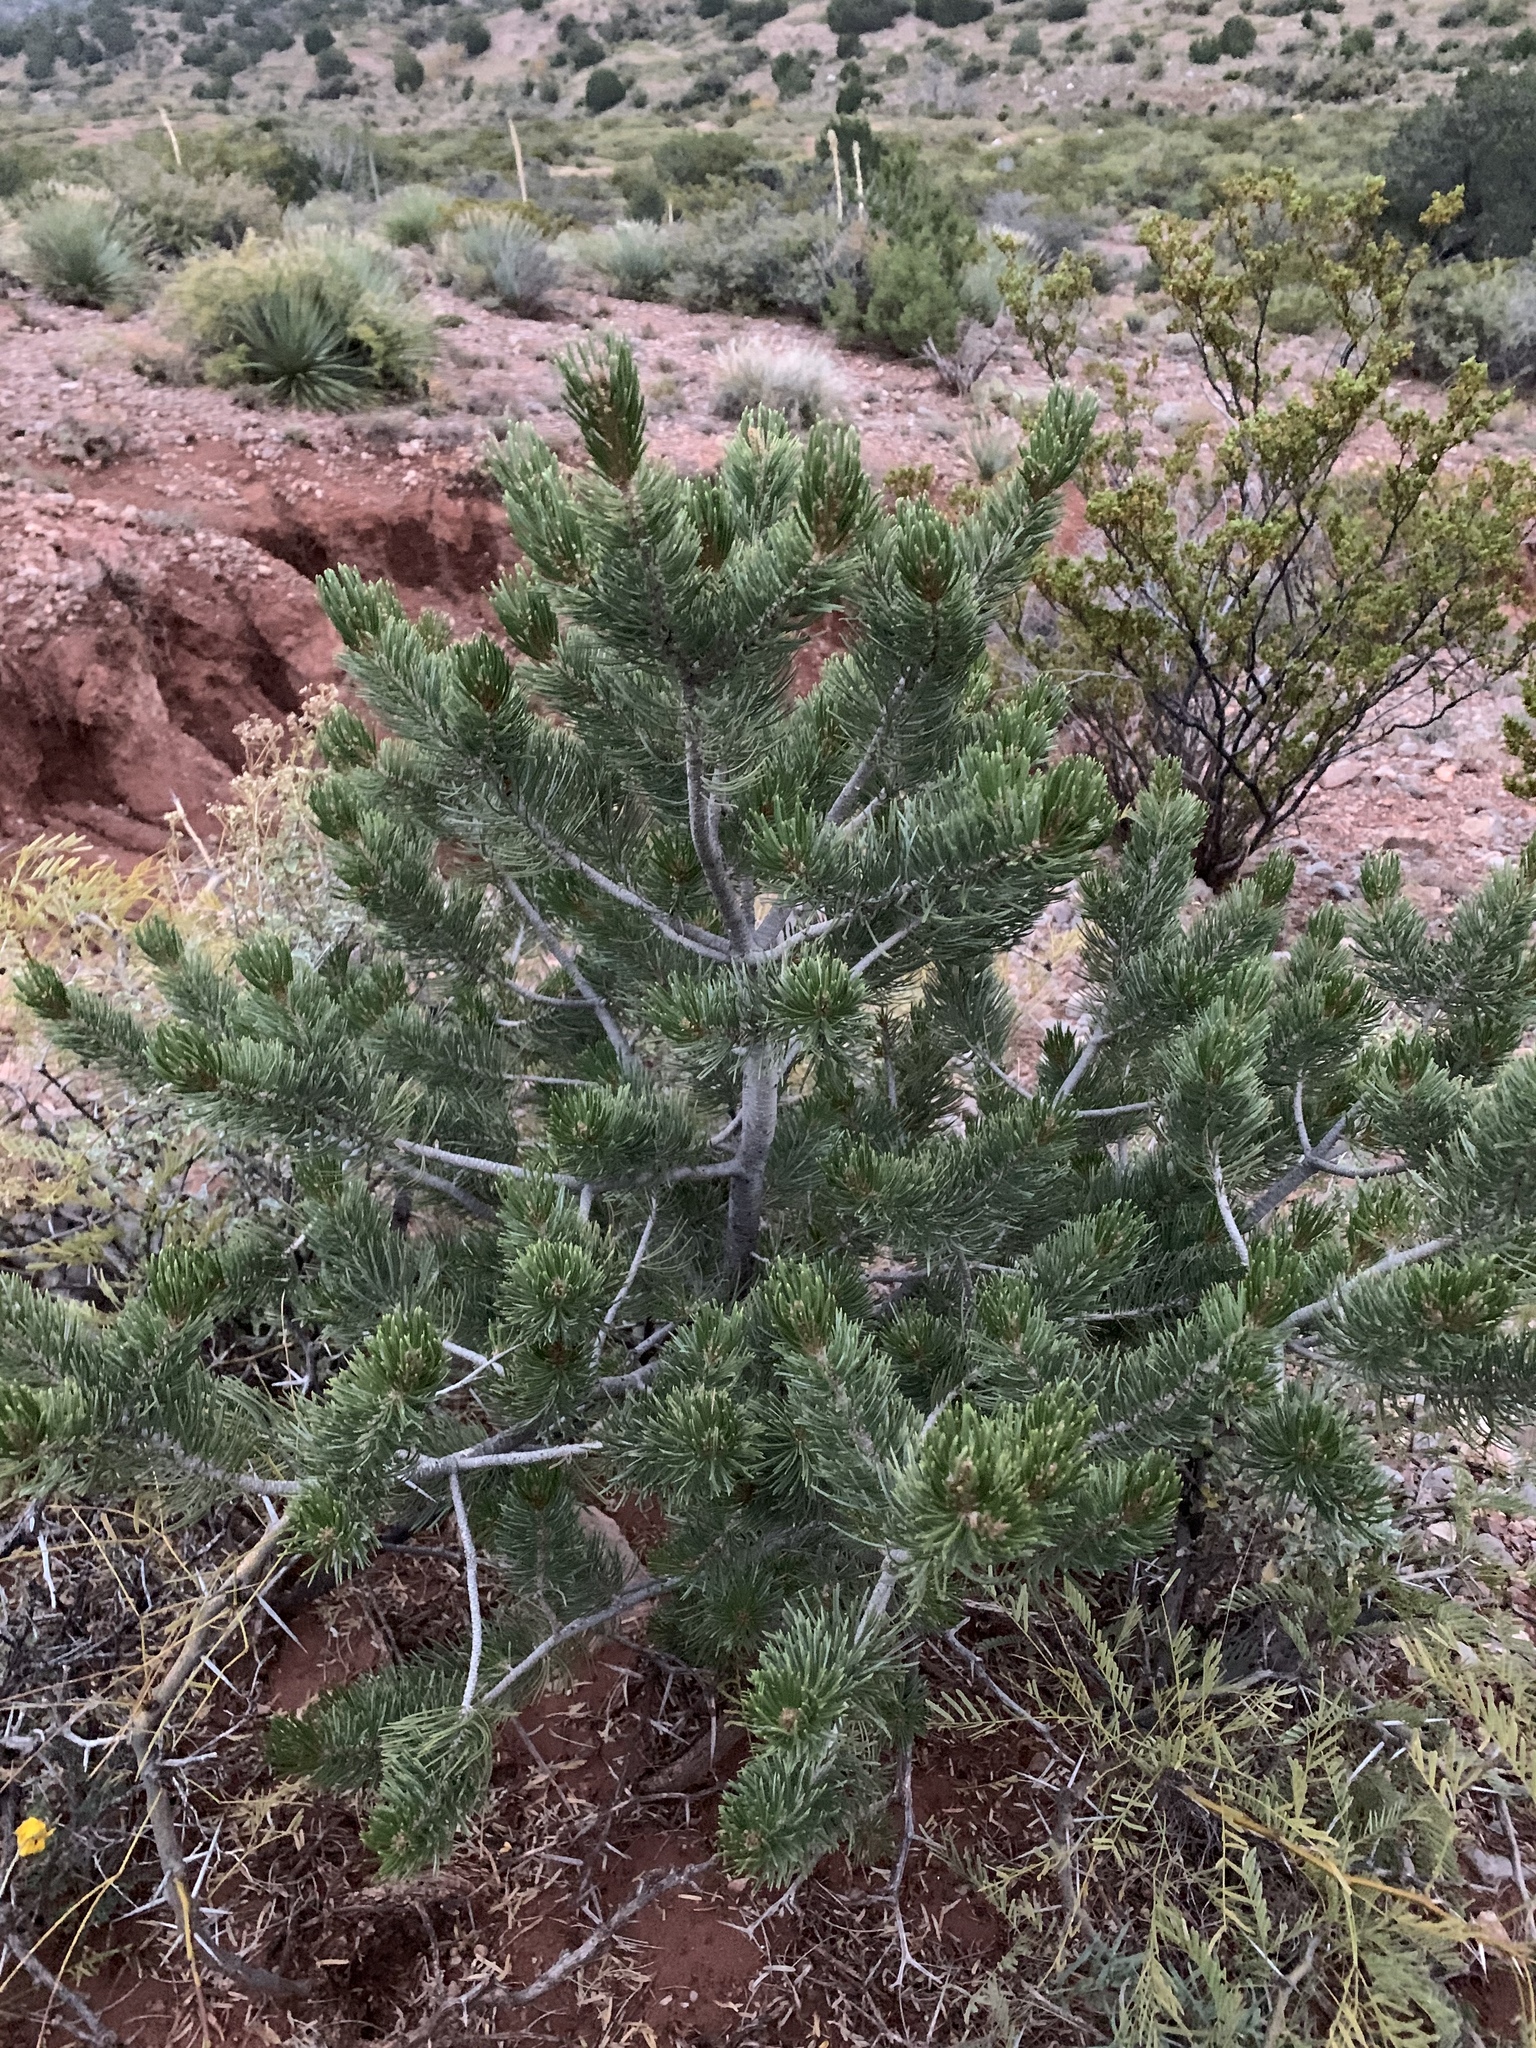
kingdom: Plantae
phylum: Tracheophyta
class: Pinopsida
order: Pinales
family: Pinaceae
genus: Pinus
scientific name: Pinus edulis
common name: Colorado pinyon
